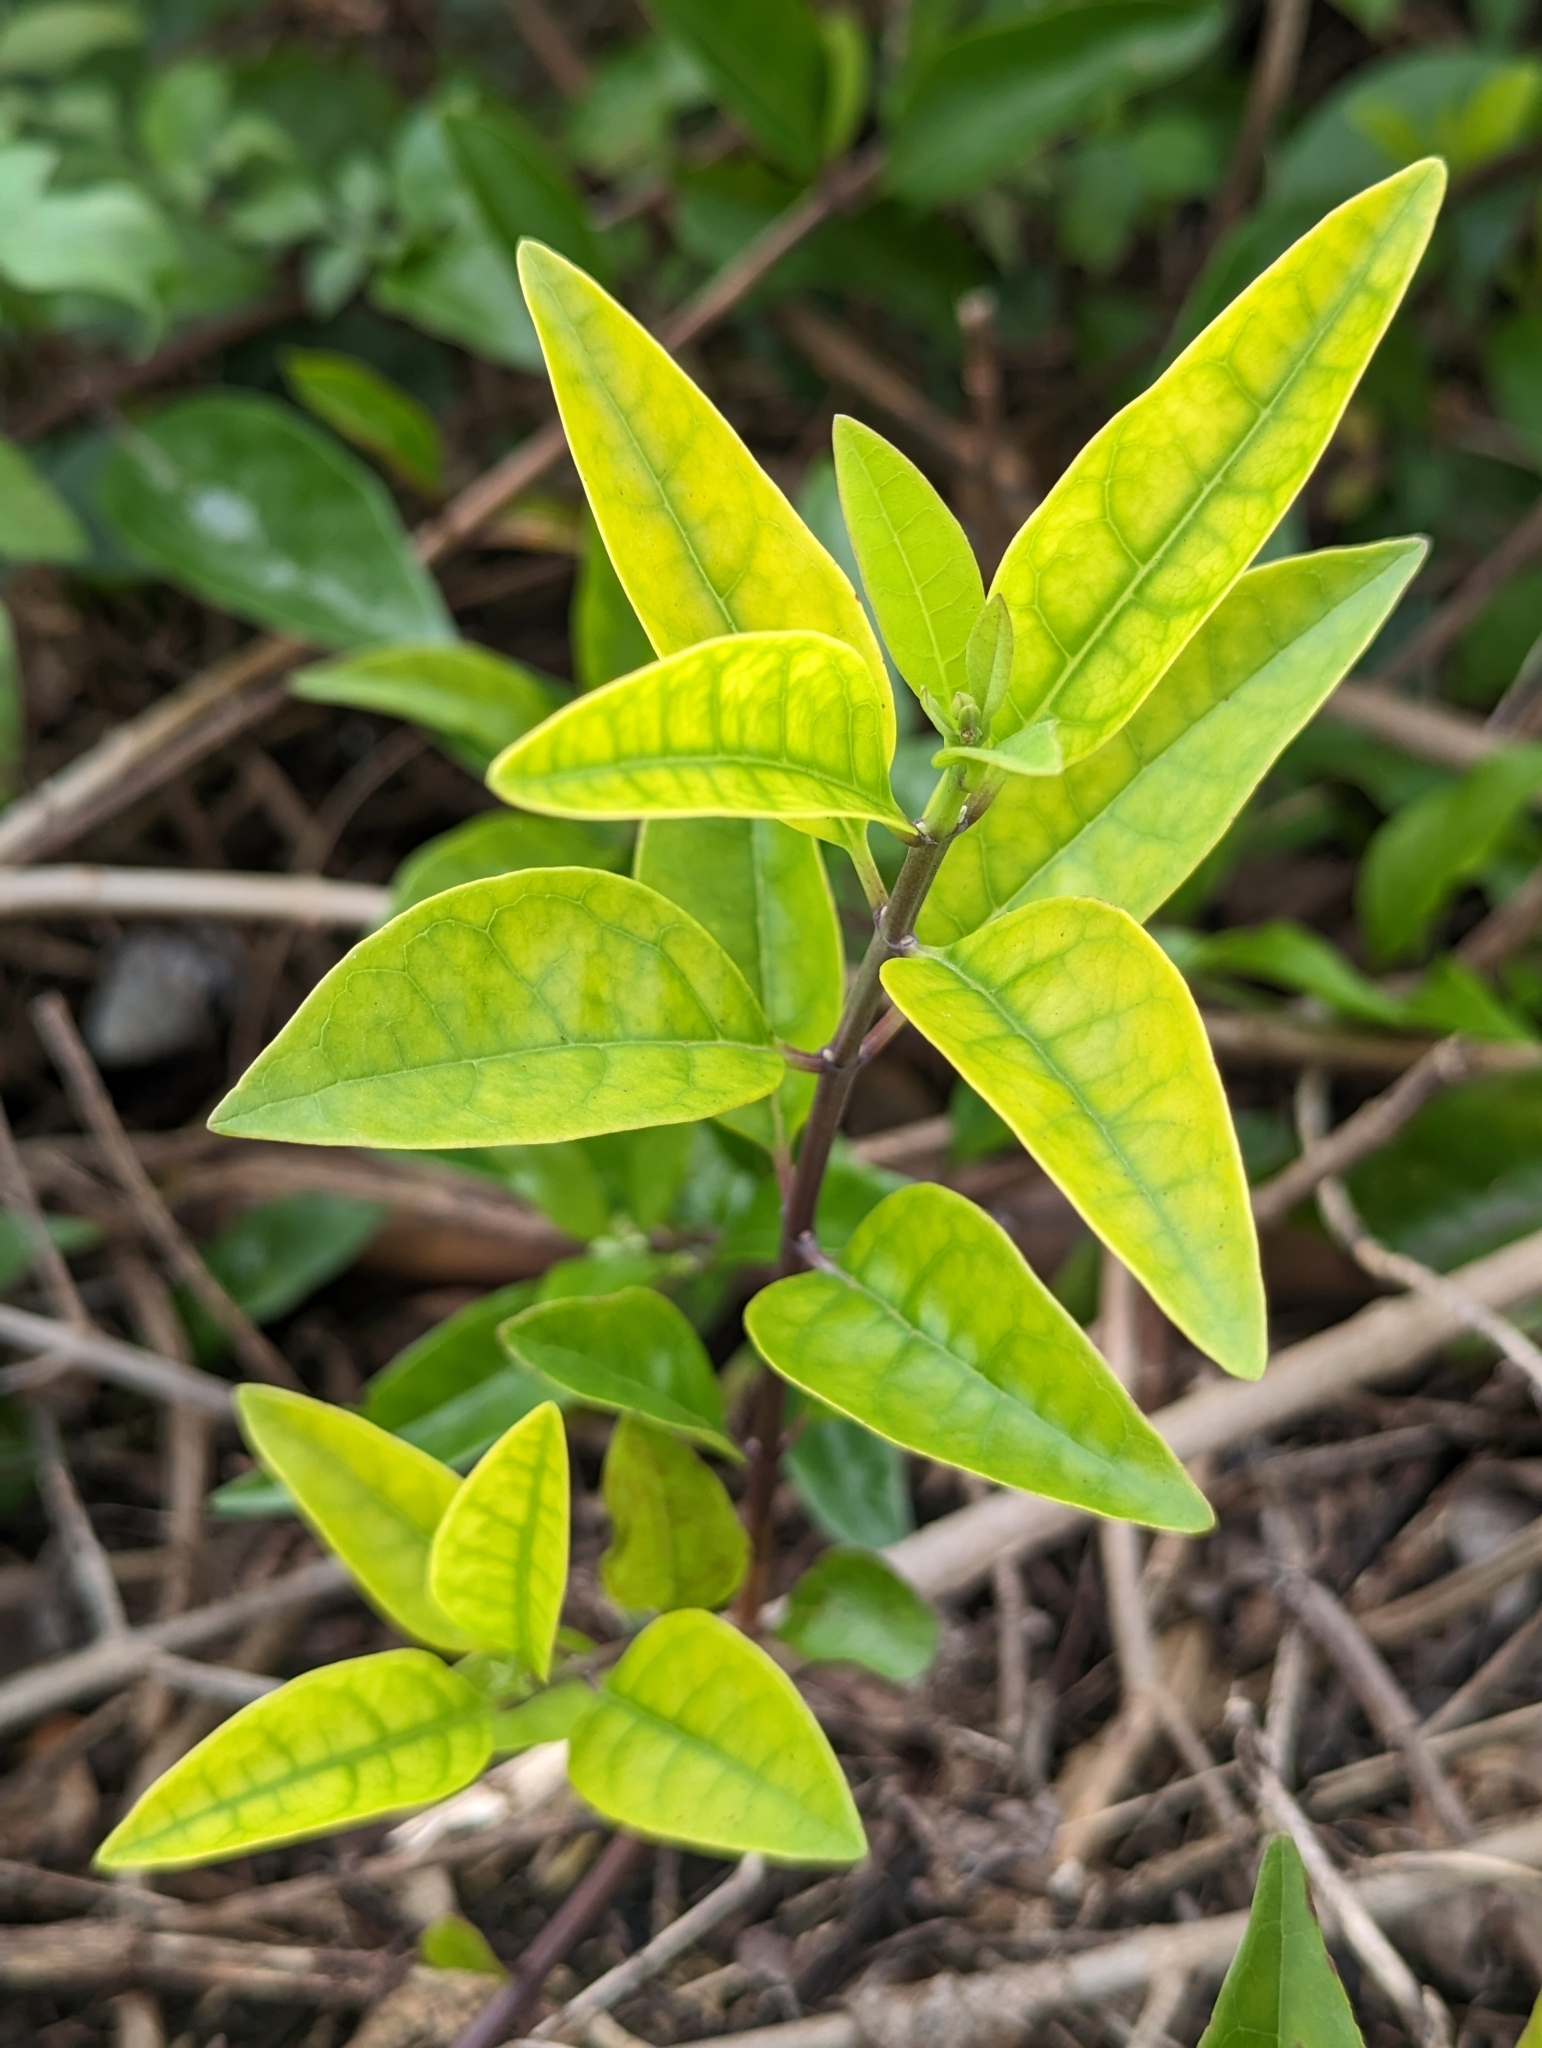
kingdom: Plantae
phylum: Tracheophyta
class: Magnoliopsida
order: Lamiales
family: Lamiaceae
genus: Volkameria
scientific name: Volkameria inermis
